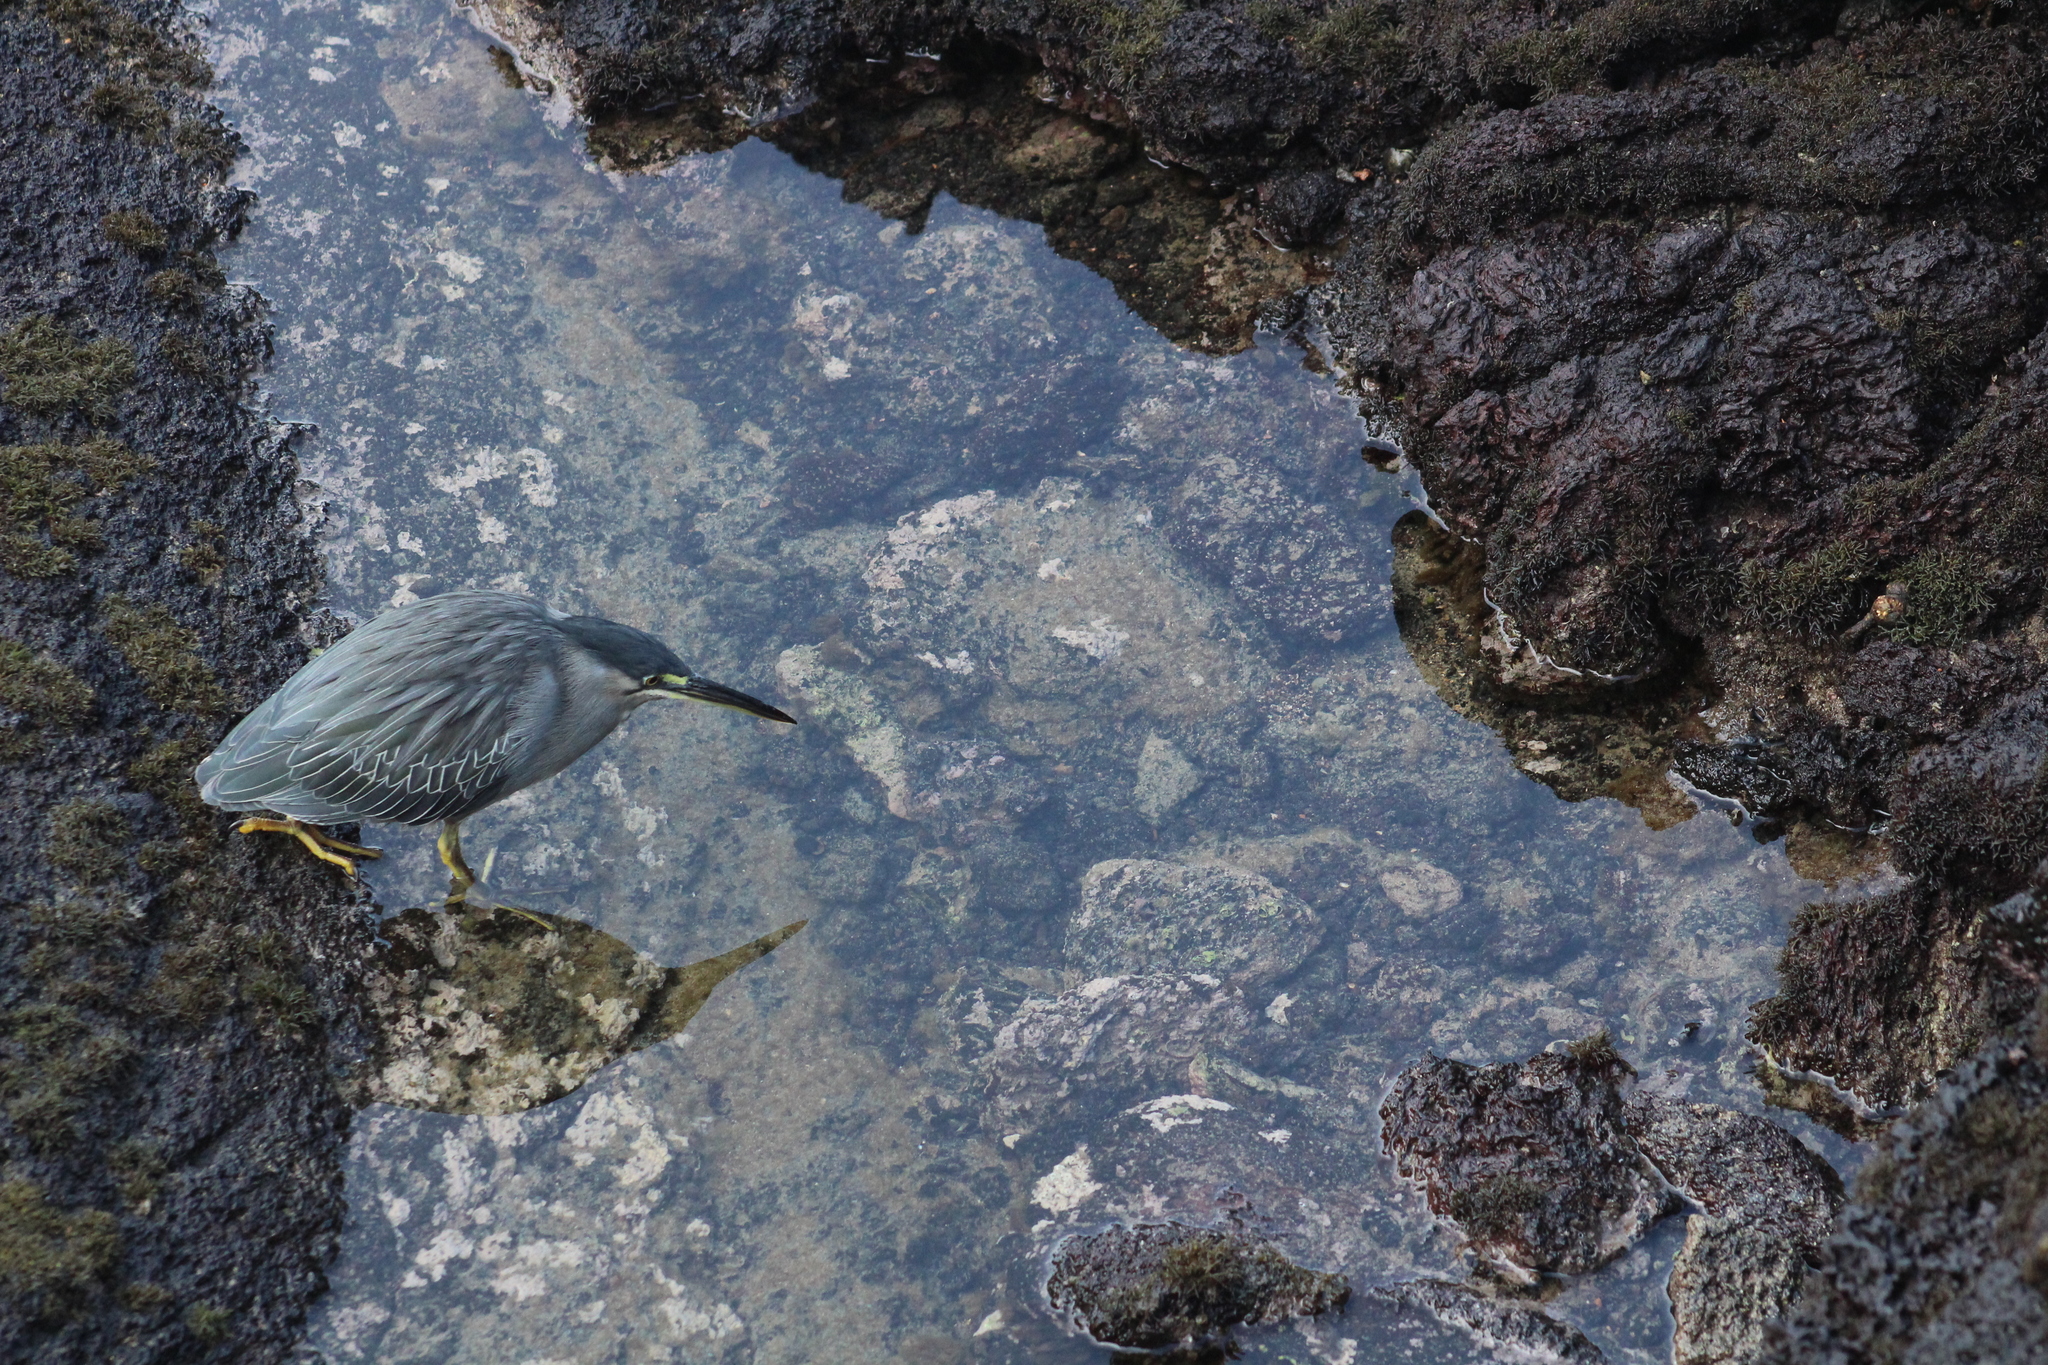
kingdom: Animalia
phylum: Chordata
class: Aves
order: Pelecaniformes
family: Ardeidae
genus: Butorides
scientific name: Butorides striata
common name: Striated heron
